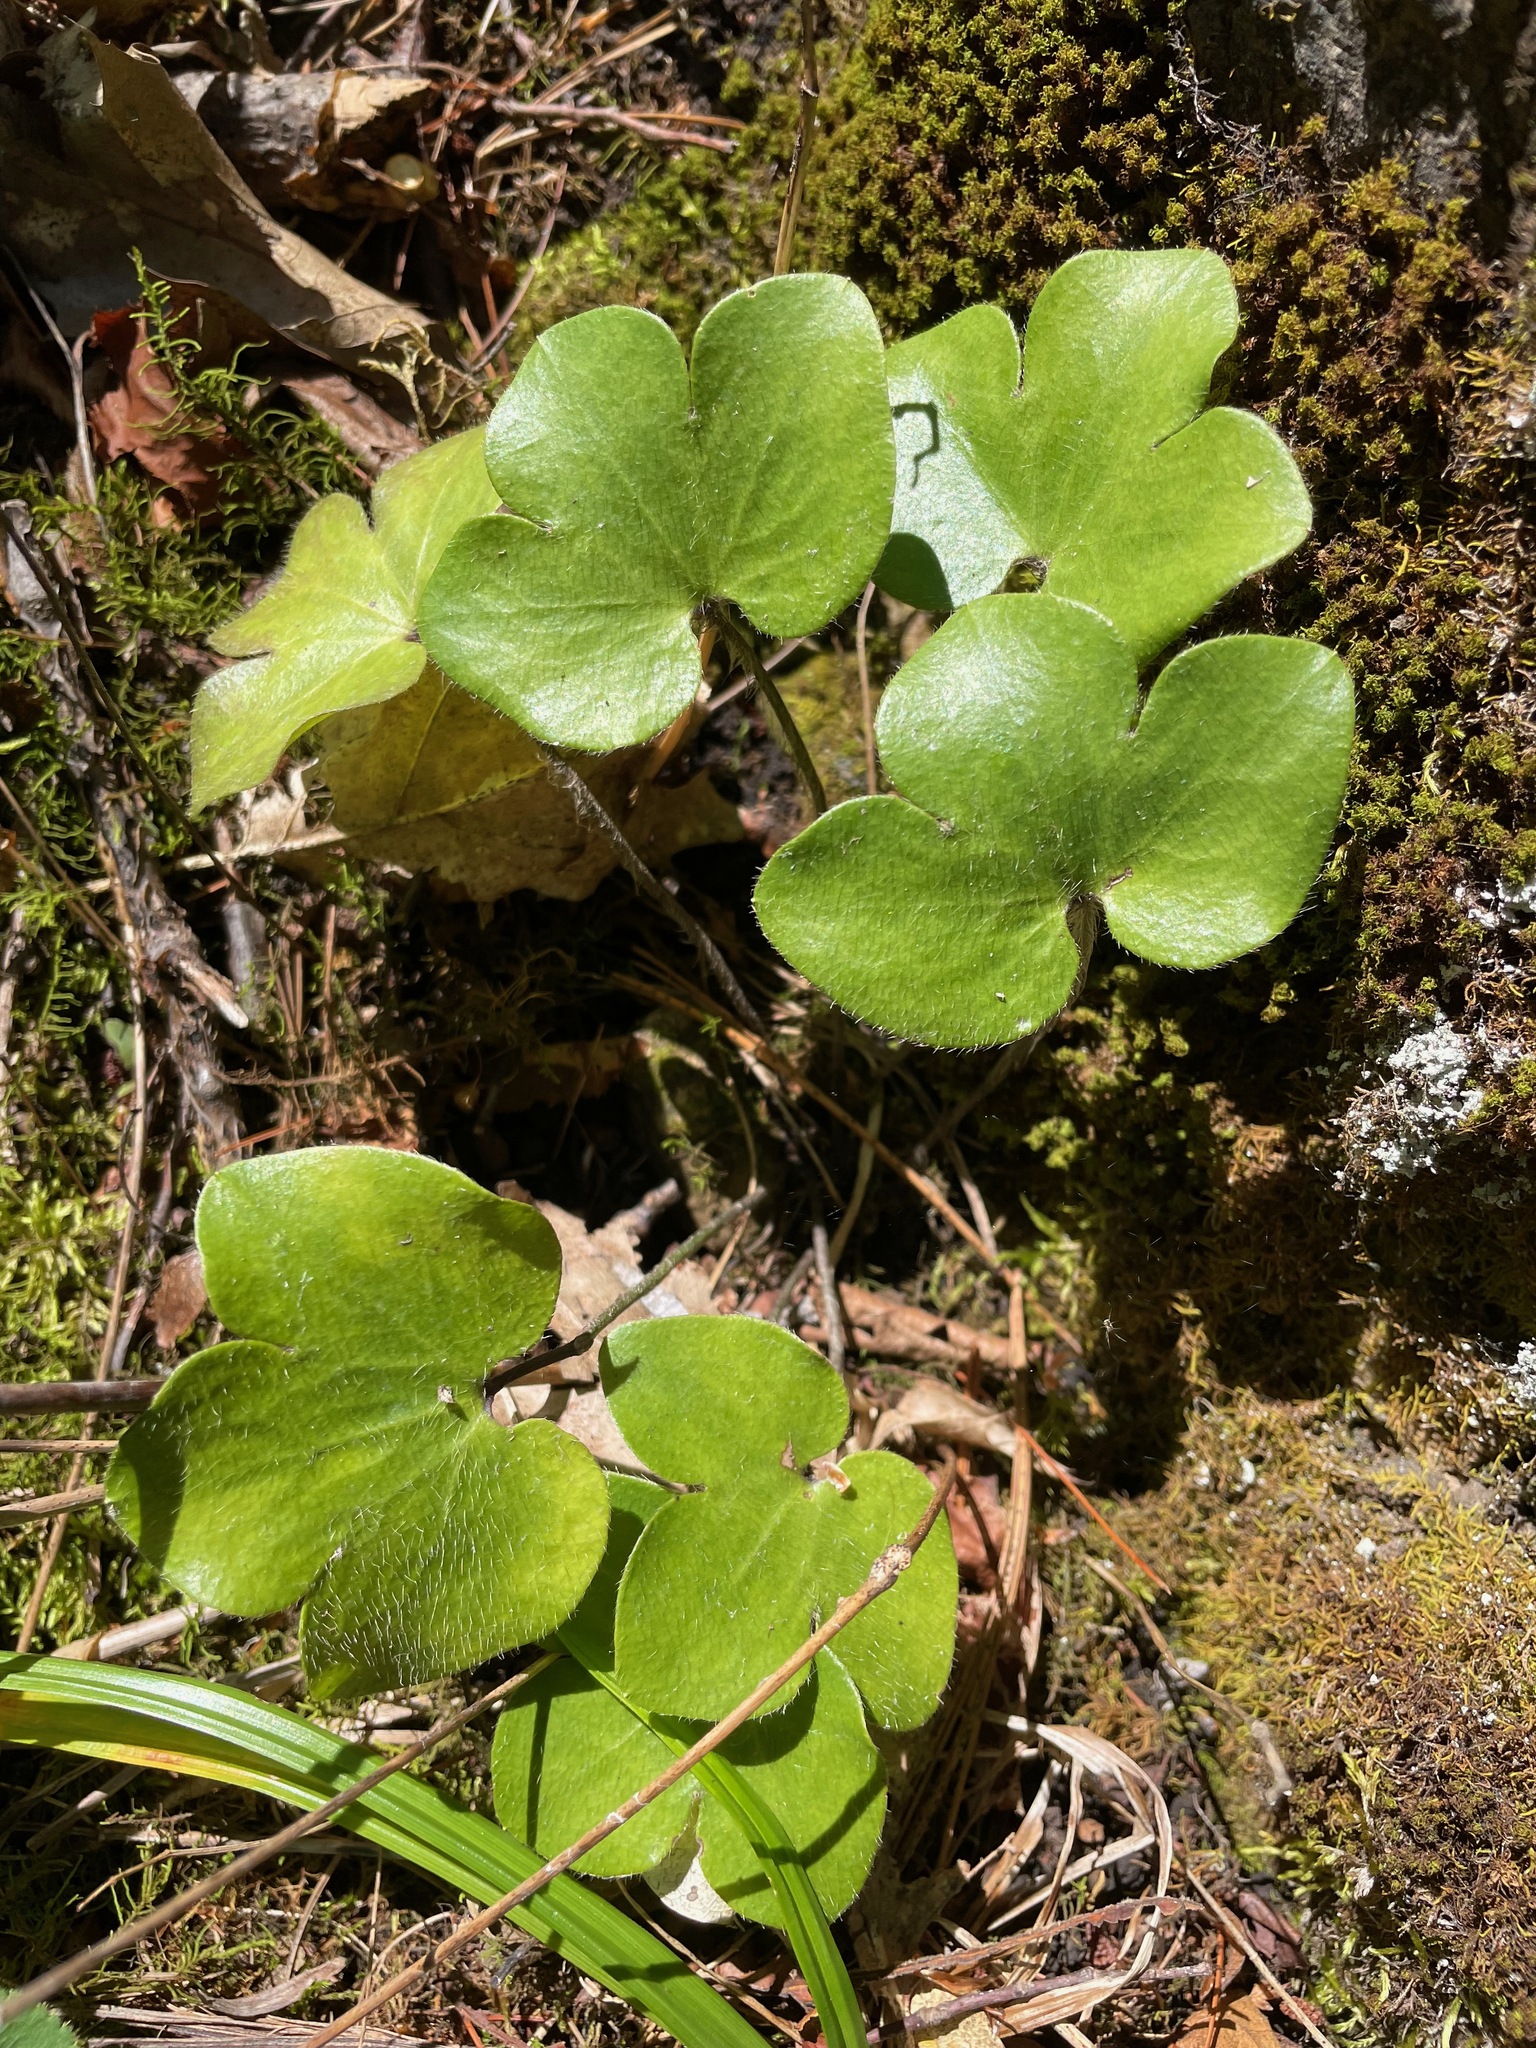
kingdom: Plantae
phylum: Tracheophyta
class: Magnoliopsida
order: Ranunculales
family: Ranunculaceae
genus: Hepatica
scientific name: Hepatica americana
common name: American hepatica
